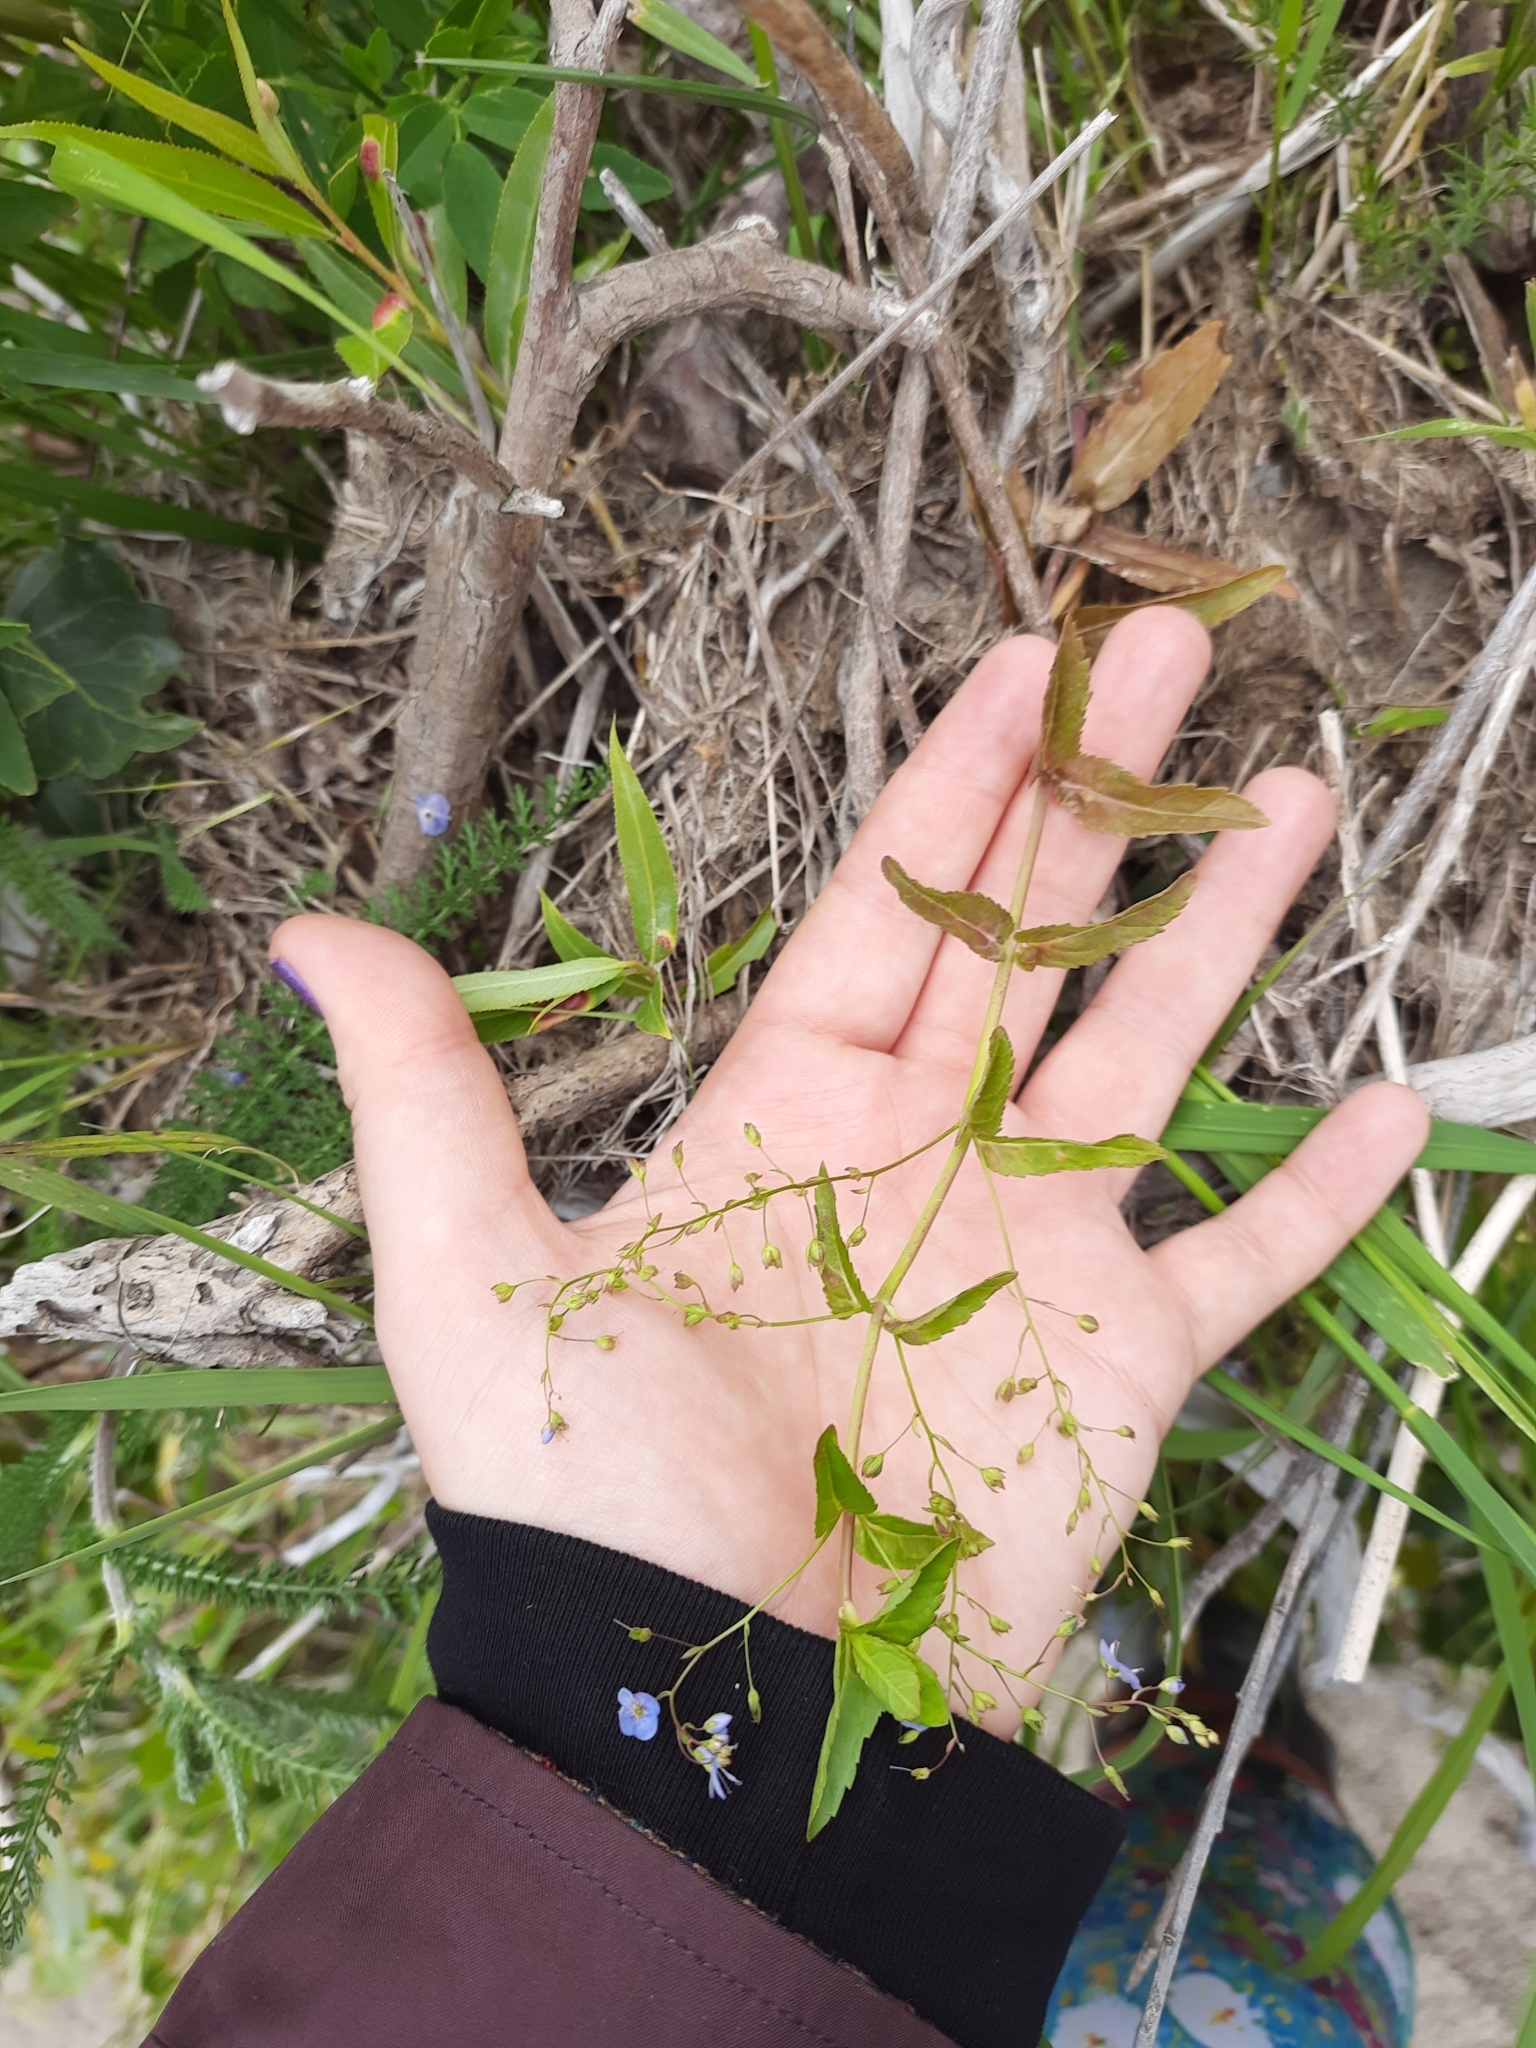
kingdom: Plantae
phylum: Tracheophyta
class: Magnoliopsida
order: Lamiales
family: Plantaginaceae
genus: Veronica
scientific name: Veronica americana
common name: American brooklime
